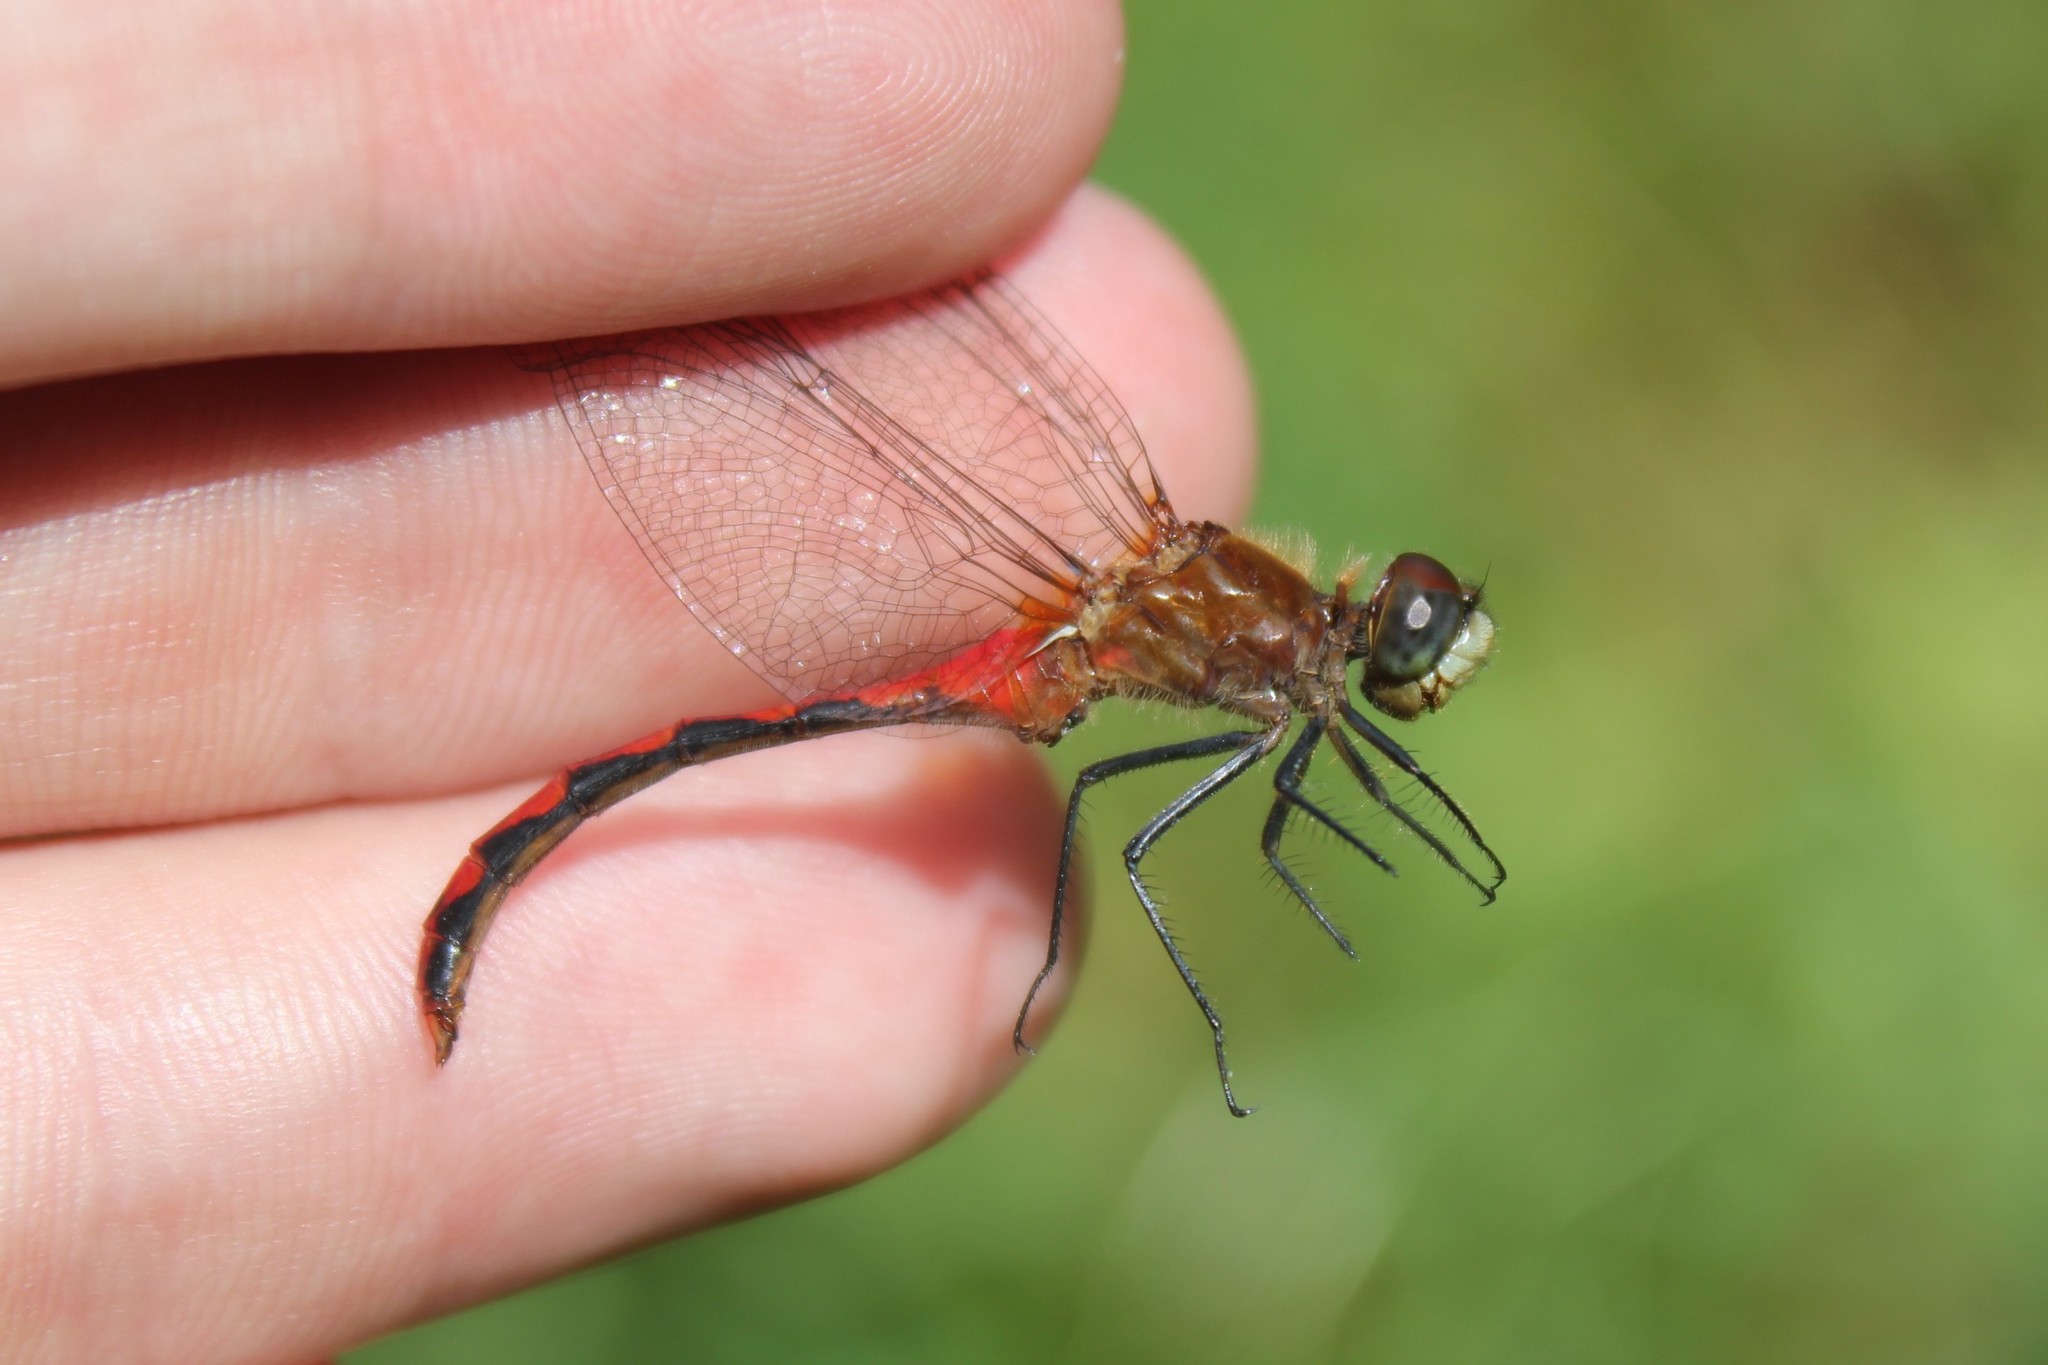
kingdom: Animalia
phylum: Arthropoda
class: Insecta
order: Odonata
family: Libellulidae
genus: Sympetrum
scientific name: Sympetrum obtrusum
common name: White-faced meadowhawk
